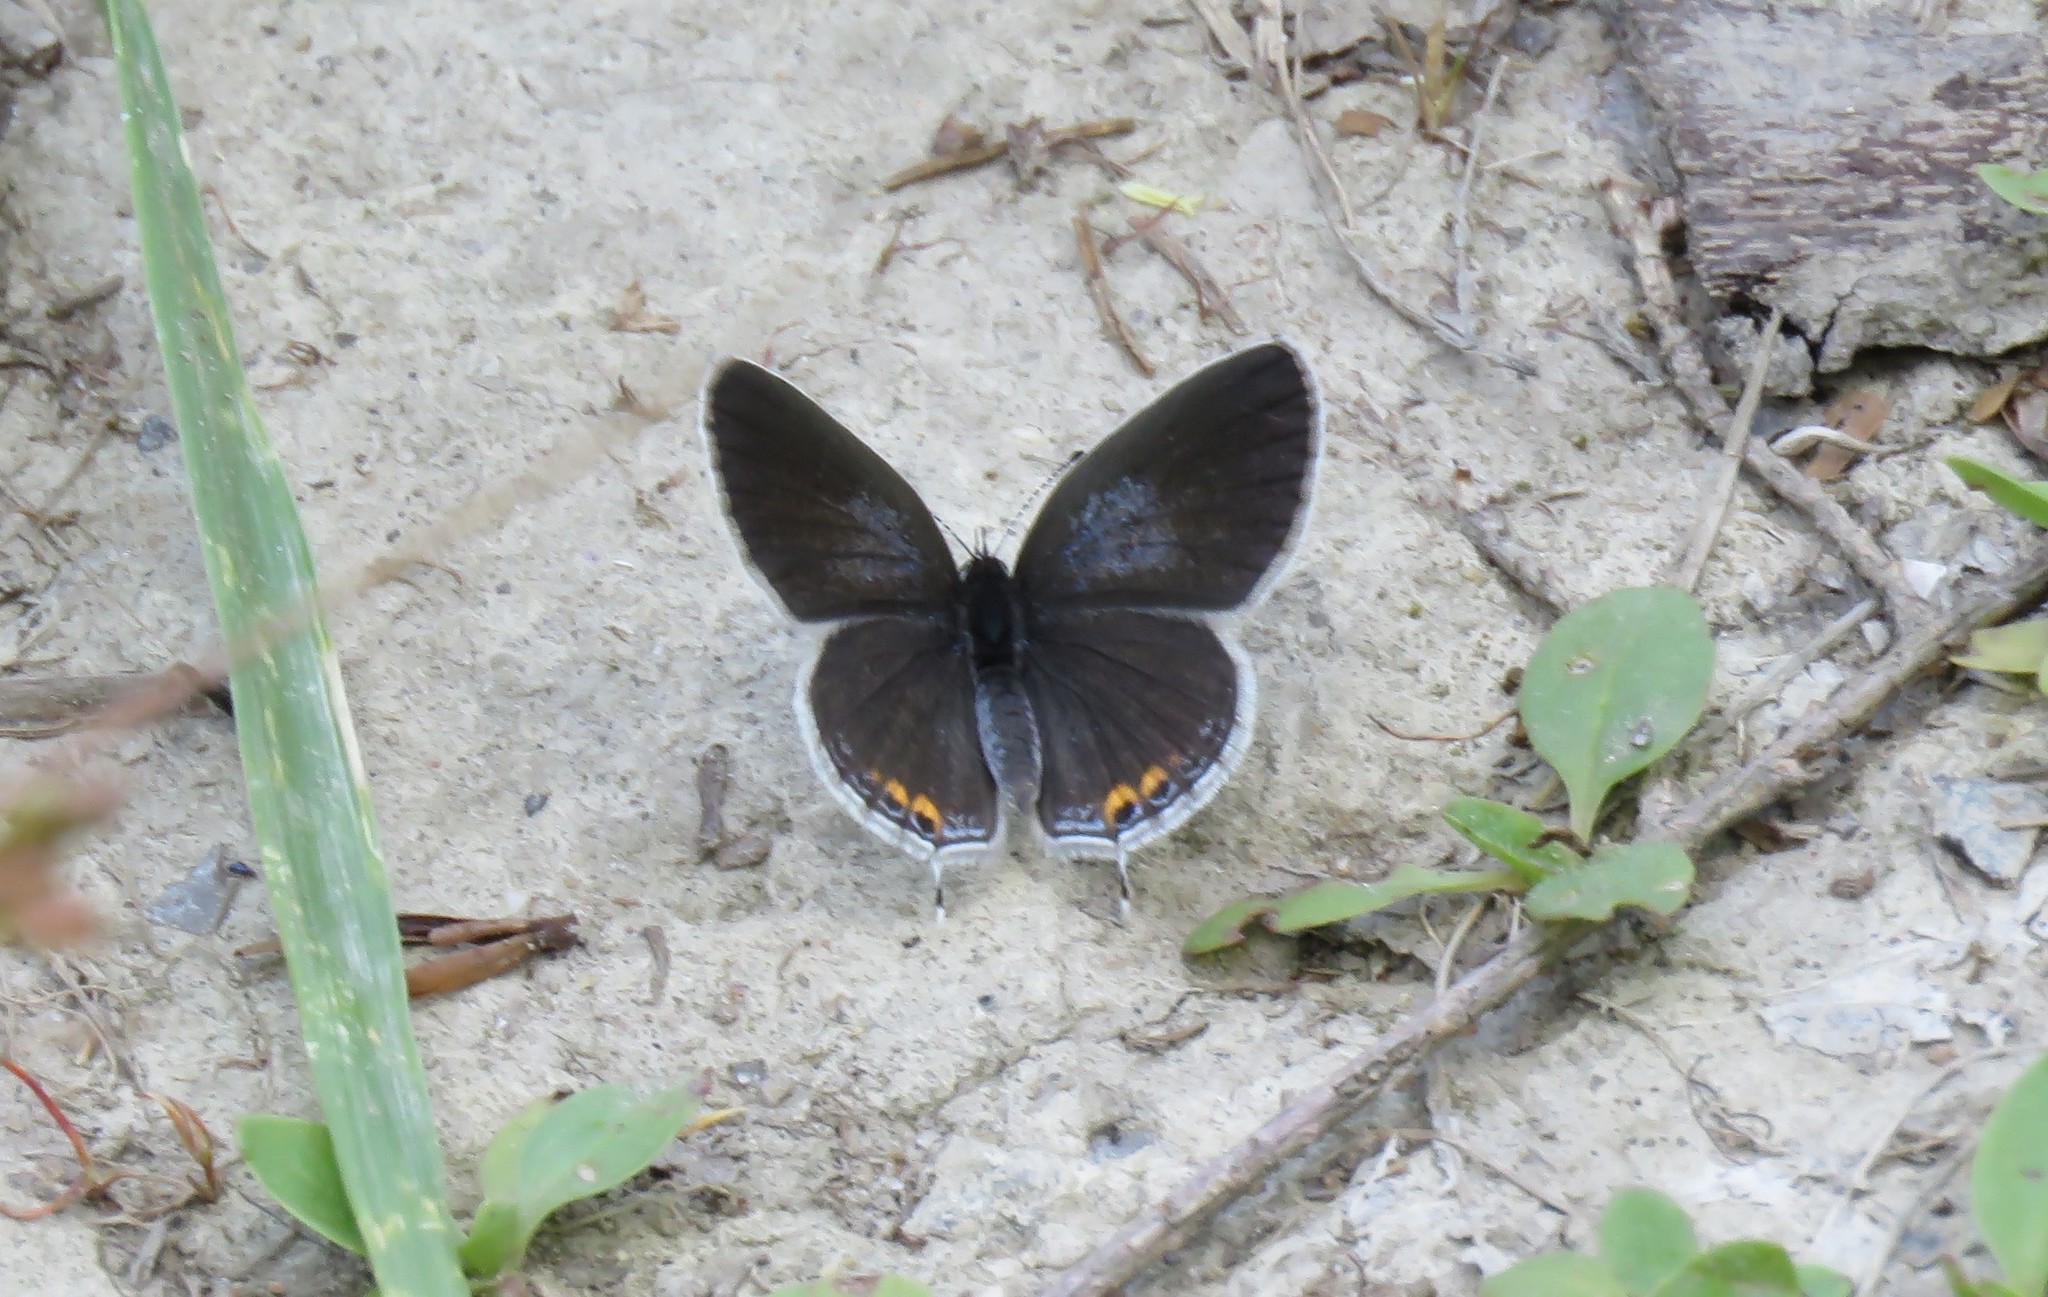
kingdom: Animalia
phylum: Arthropoda
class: Insecta
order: Lepidoptera
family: Lycaenidae
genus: Elkalyce
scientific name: Elkalyce comyntas
